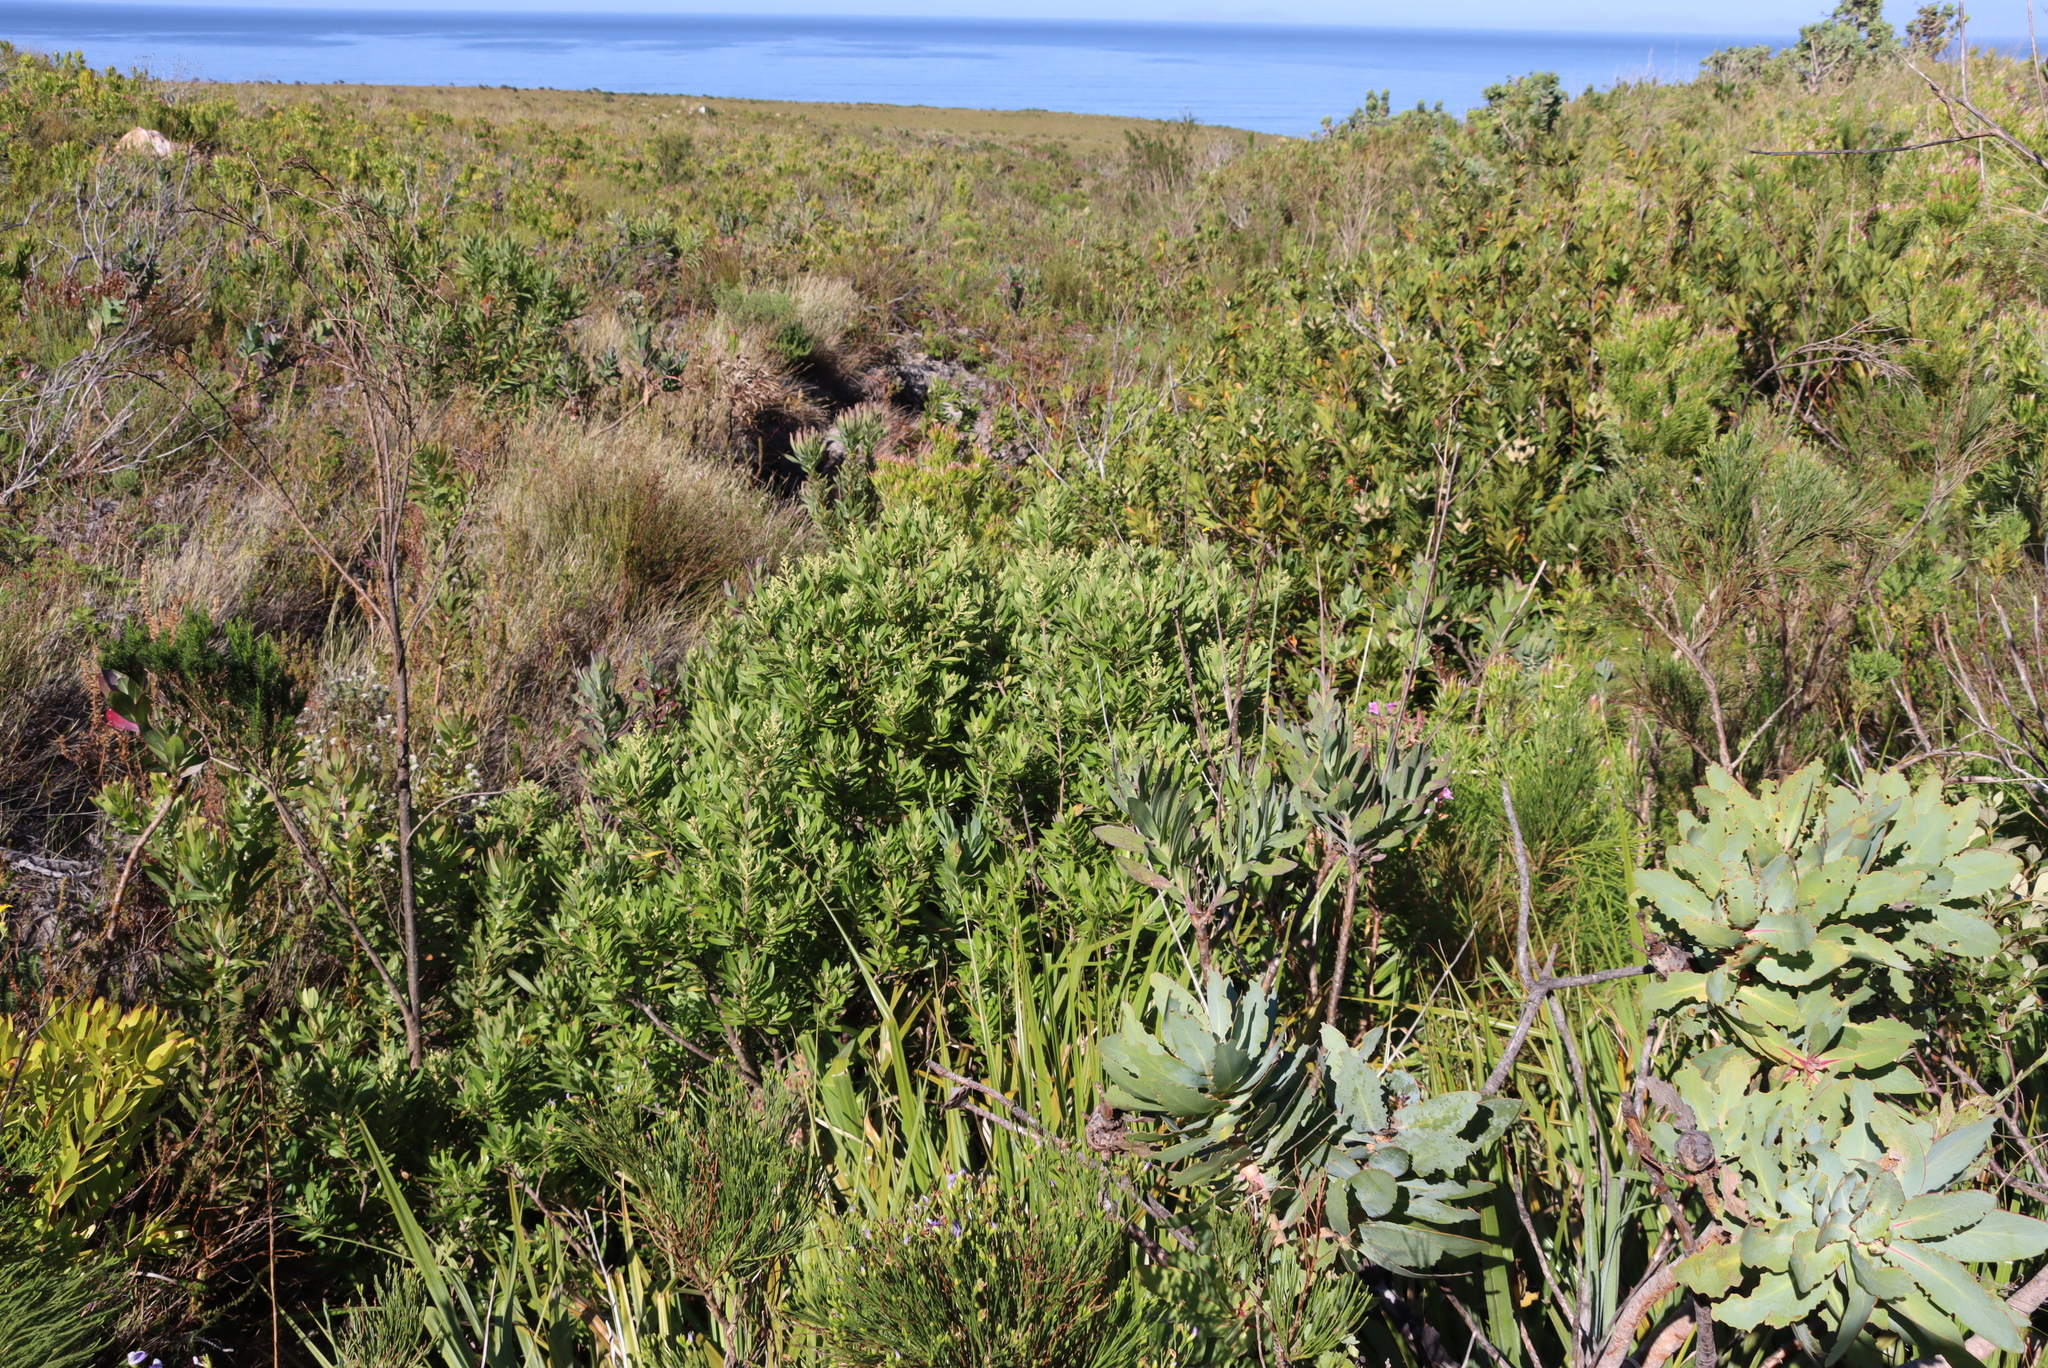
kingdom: Plantae
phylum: Tracheophyta
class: Magnoliopsida
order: Asterales
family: Asteraceae
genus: Brachylaena
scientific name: Brachylaena neriifolia
